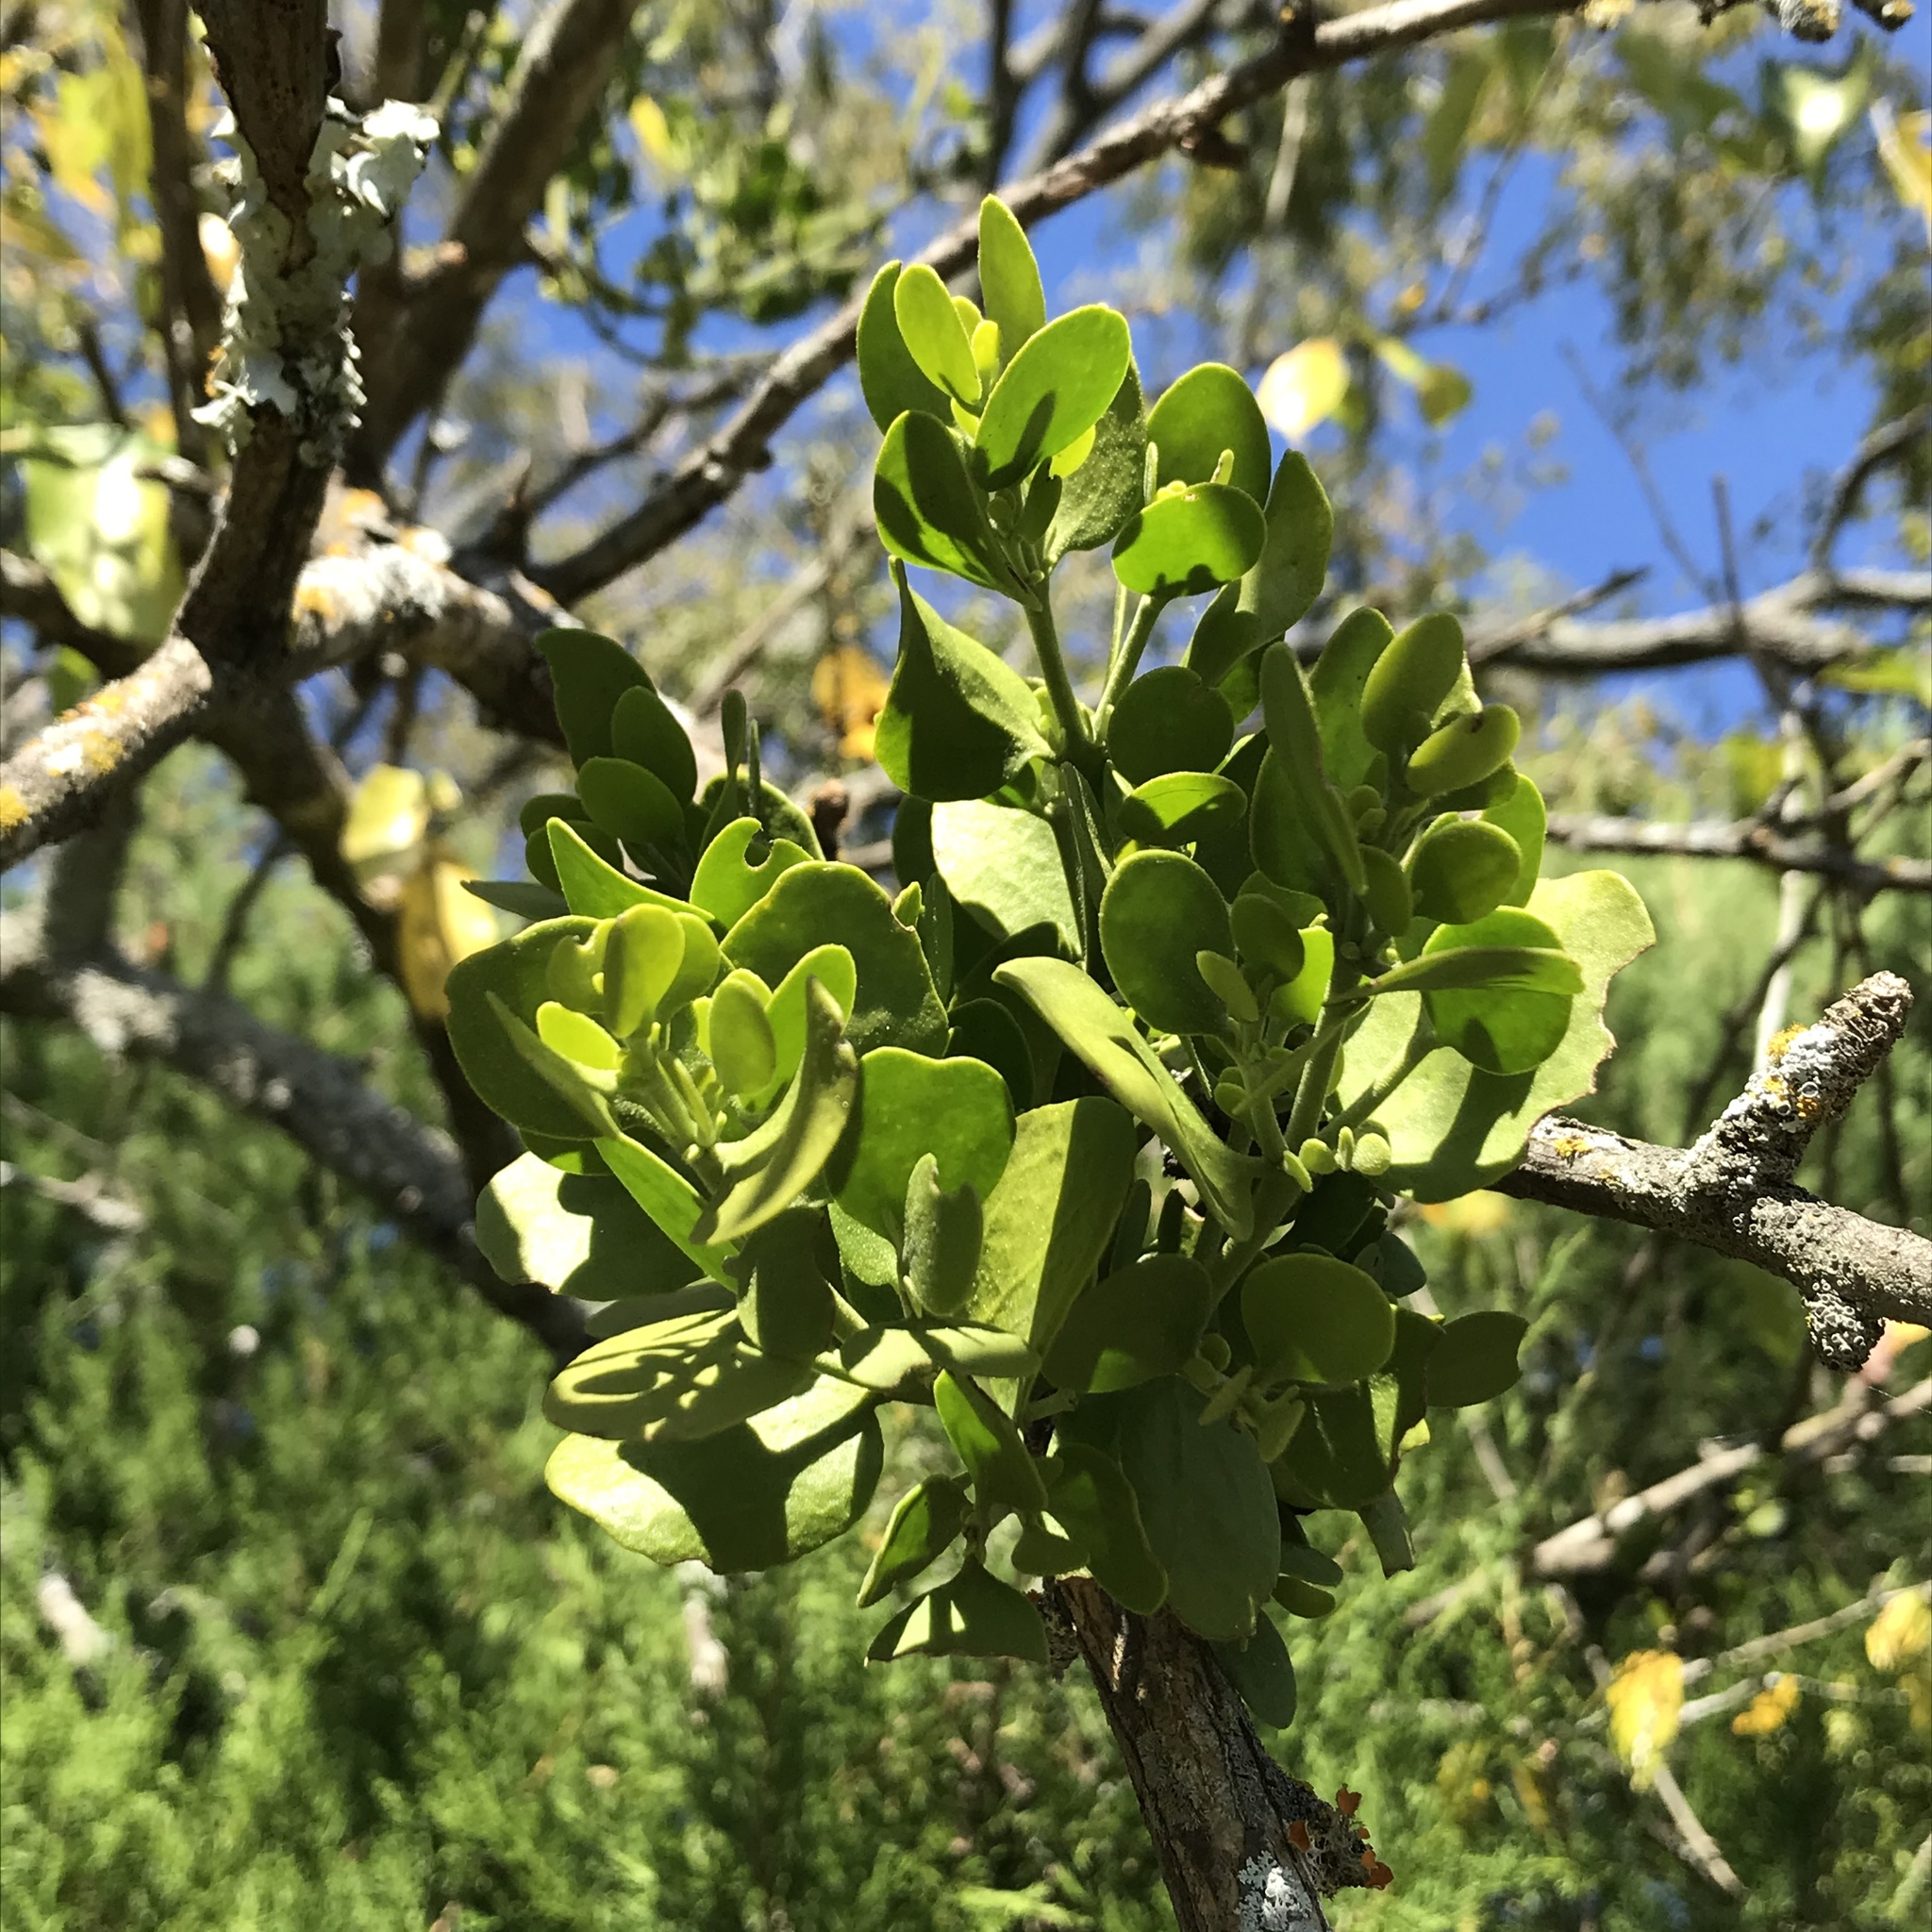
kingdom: Plantae
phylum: Tracheophyta
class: Magnoliopsida
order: Santalales
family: Viscaceae
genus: Phoradendron
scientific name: Phoradendron leucarpum
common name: Pacific mistletoe
